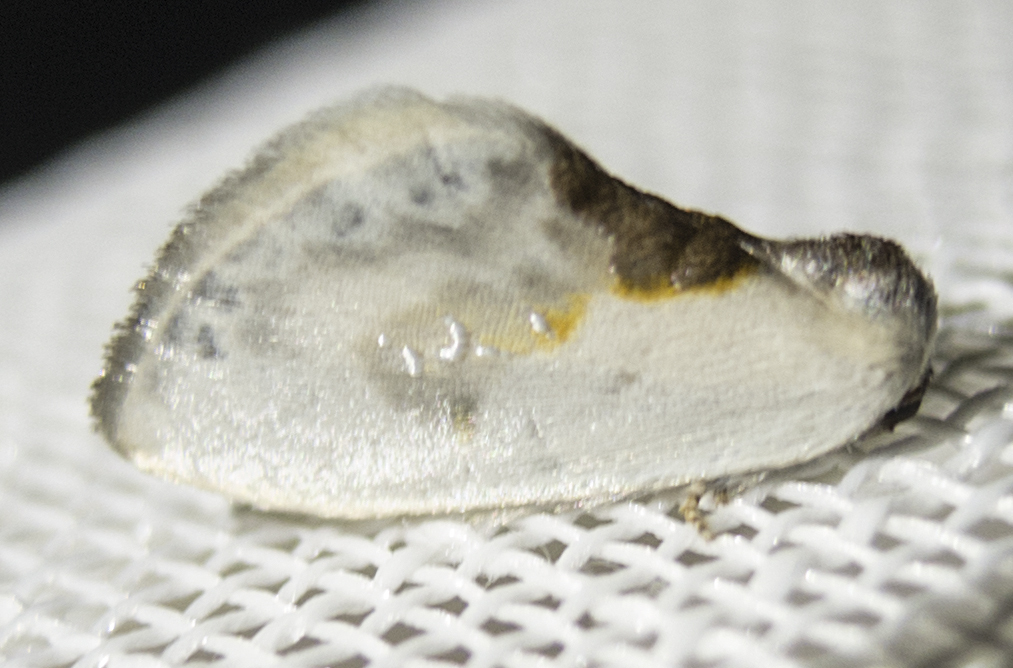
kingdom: Animalia
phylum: Arthropoda
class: Insecta
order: Lepidoptera
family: Drepanidae
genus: Cilix
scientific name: Cilix glaucata
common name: Chinese character
